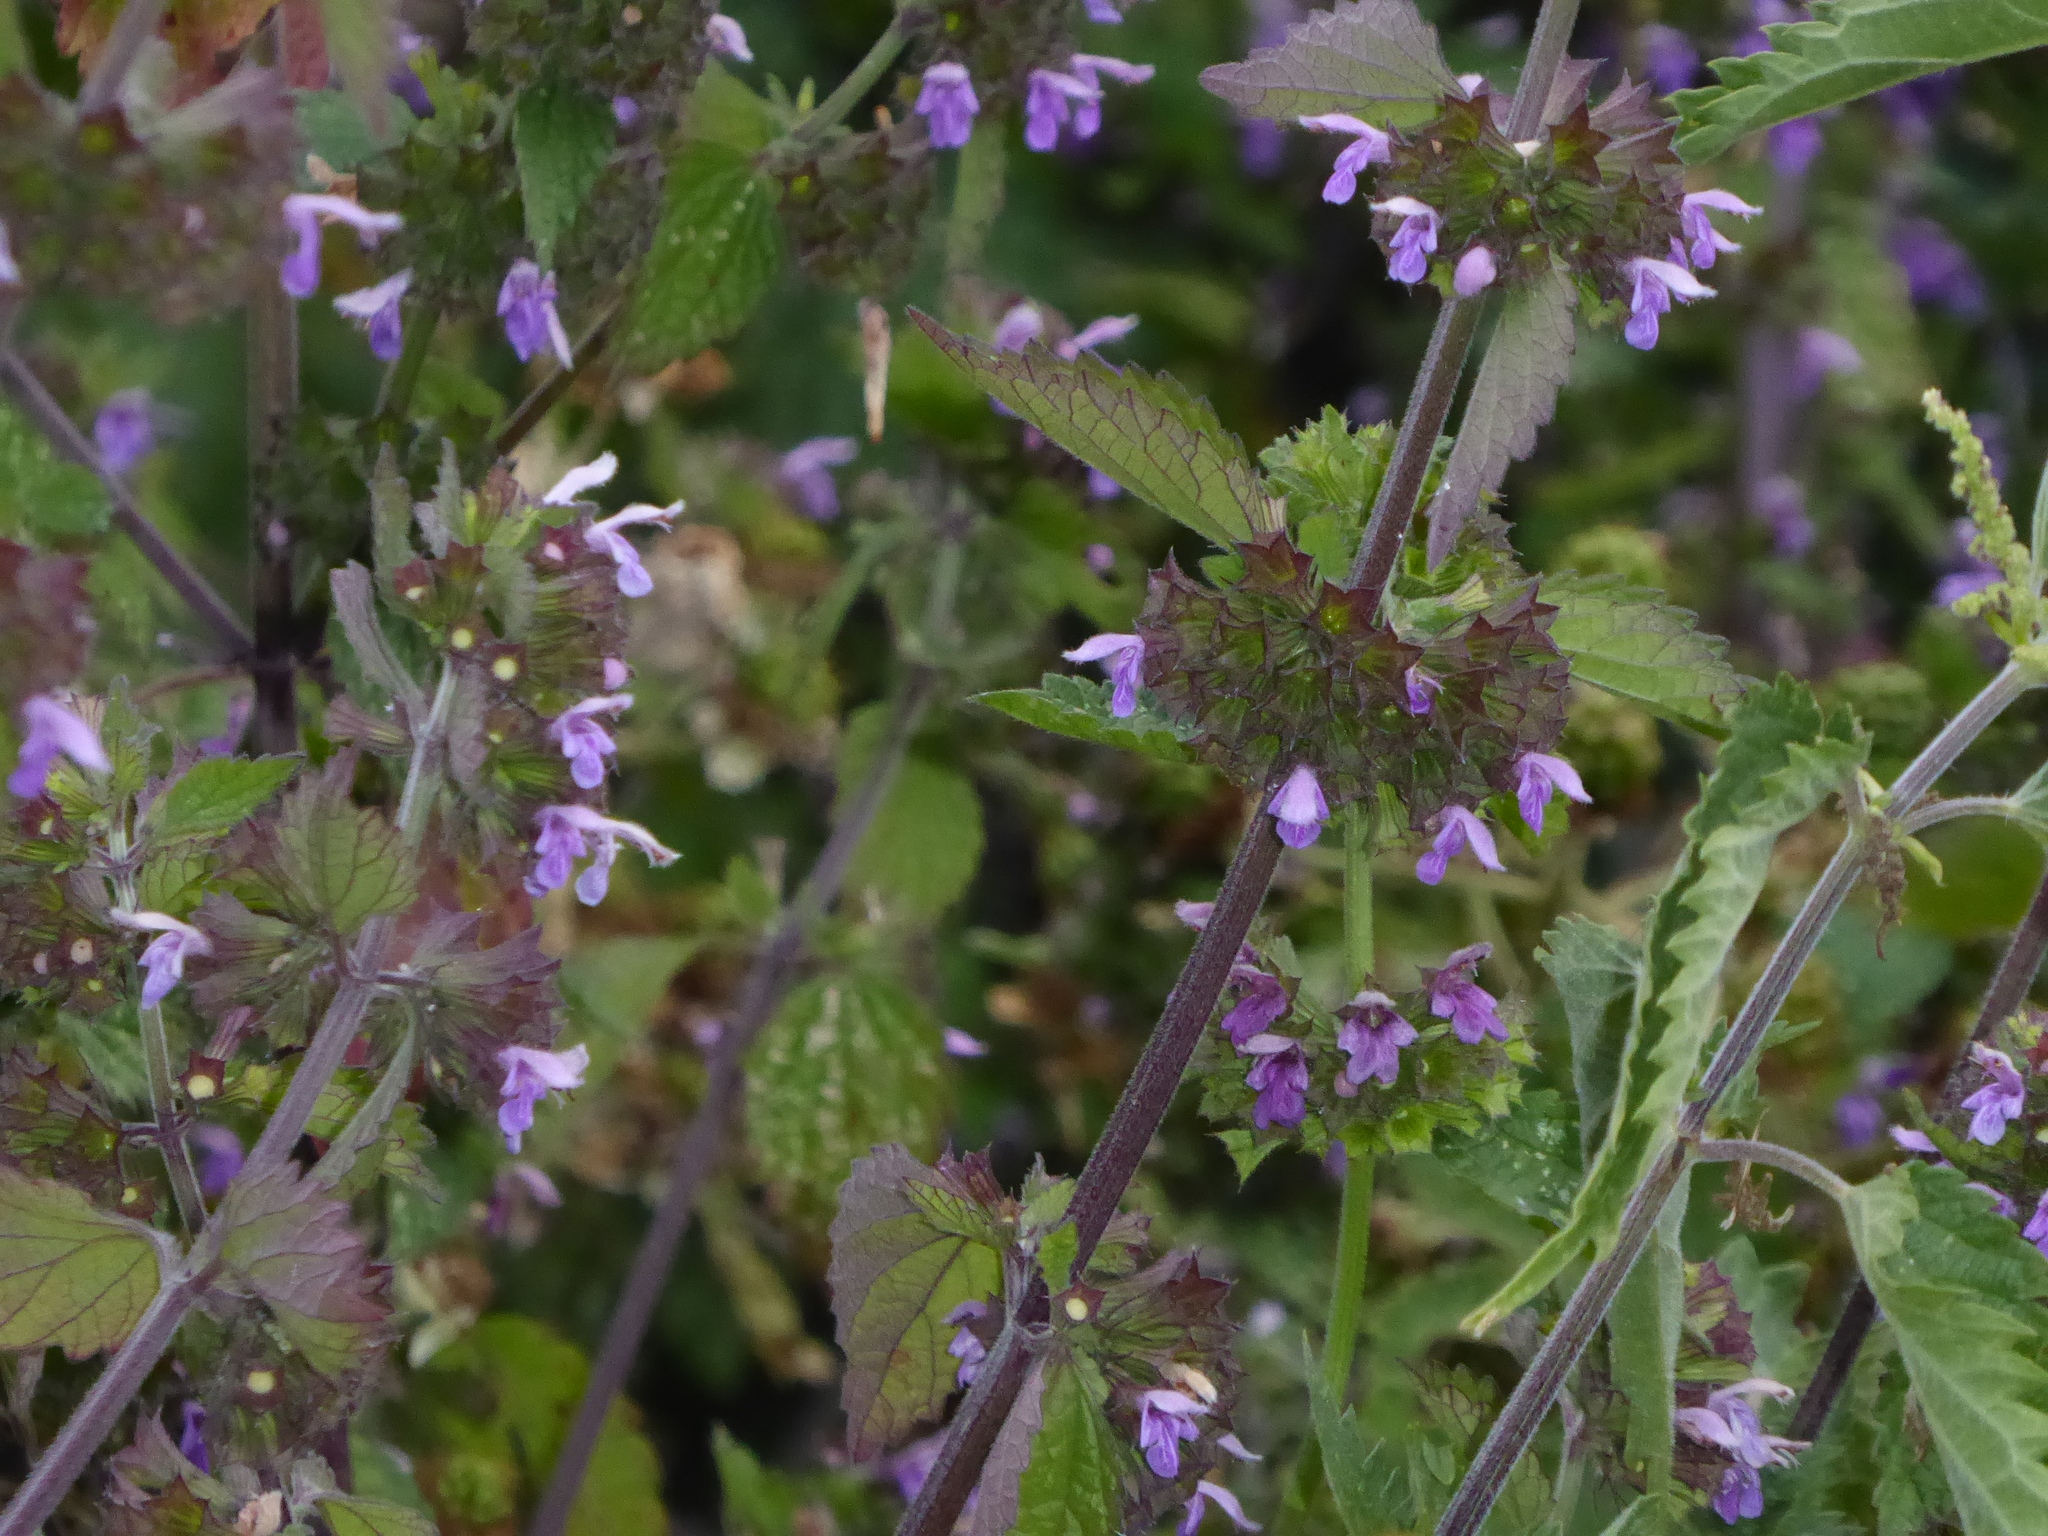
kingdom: Plantae
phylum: Tracheophyta
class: Magnoliopsida
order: Lamiales
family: Lamiaceae
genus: Ballota
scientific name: Ballota nigra
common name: Black horehound
